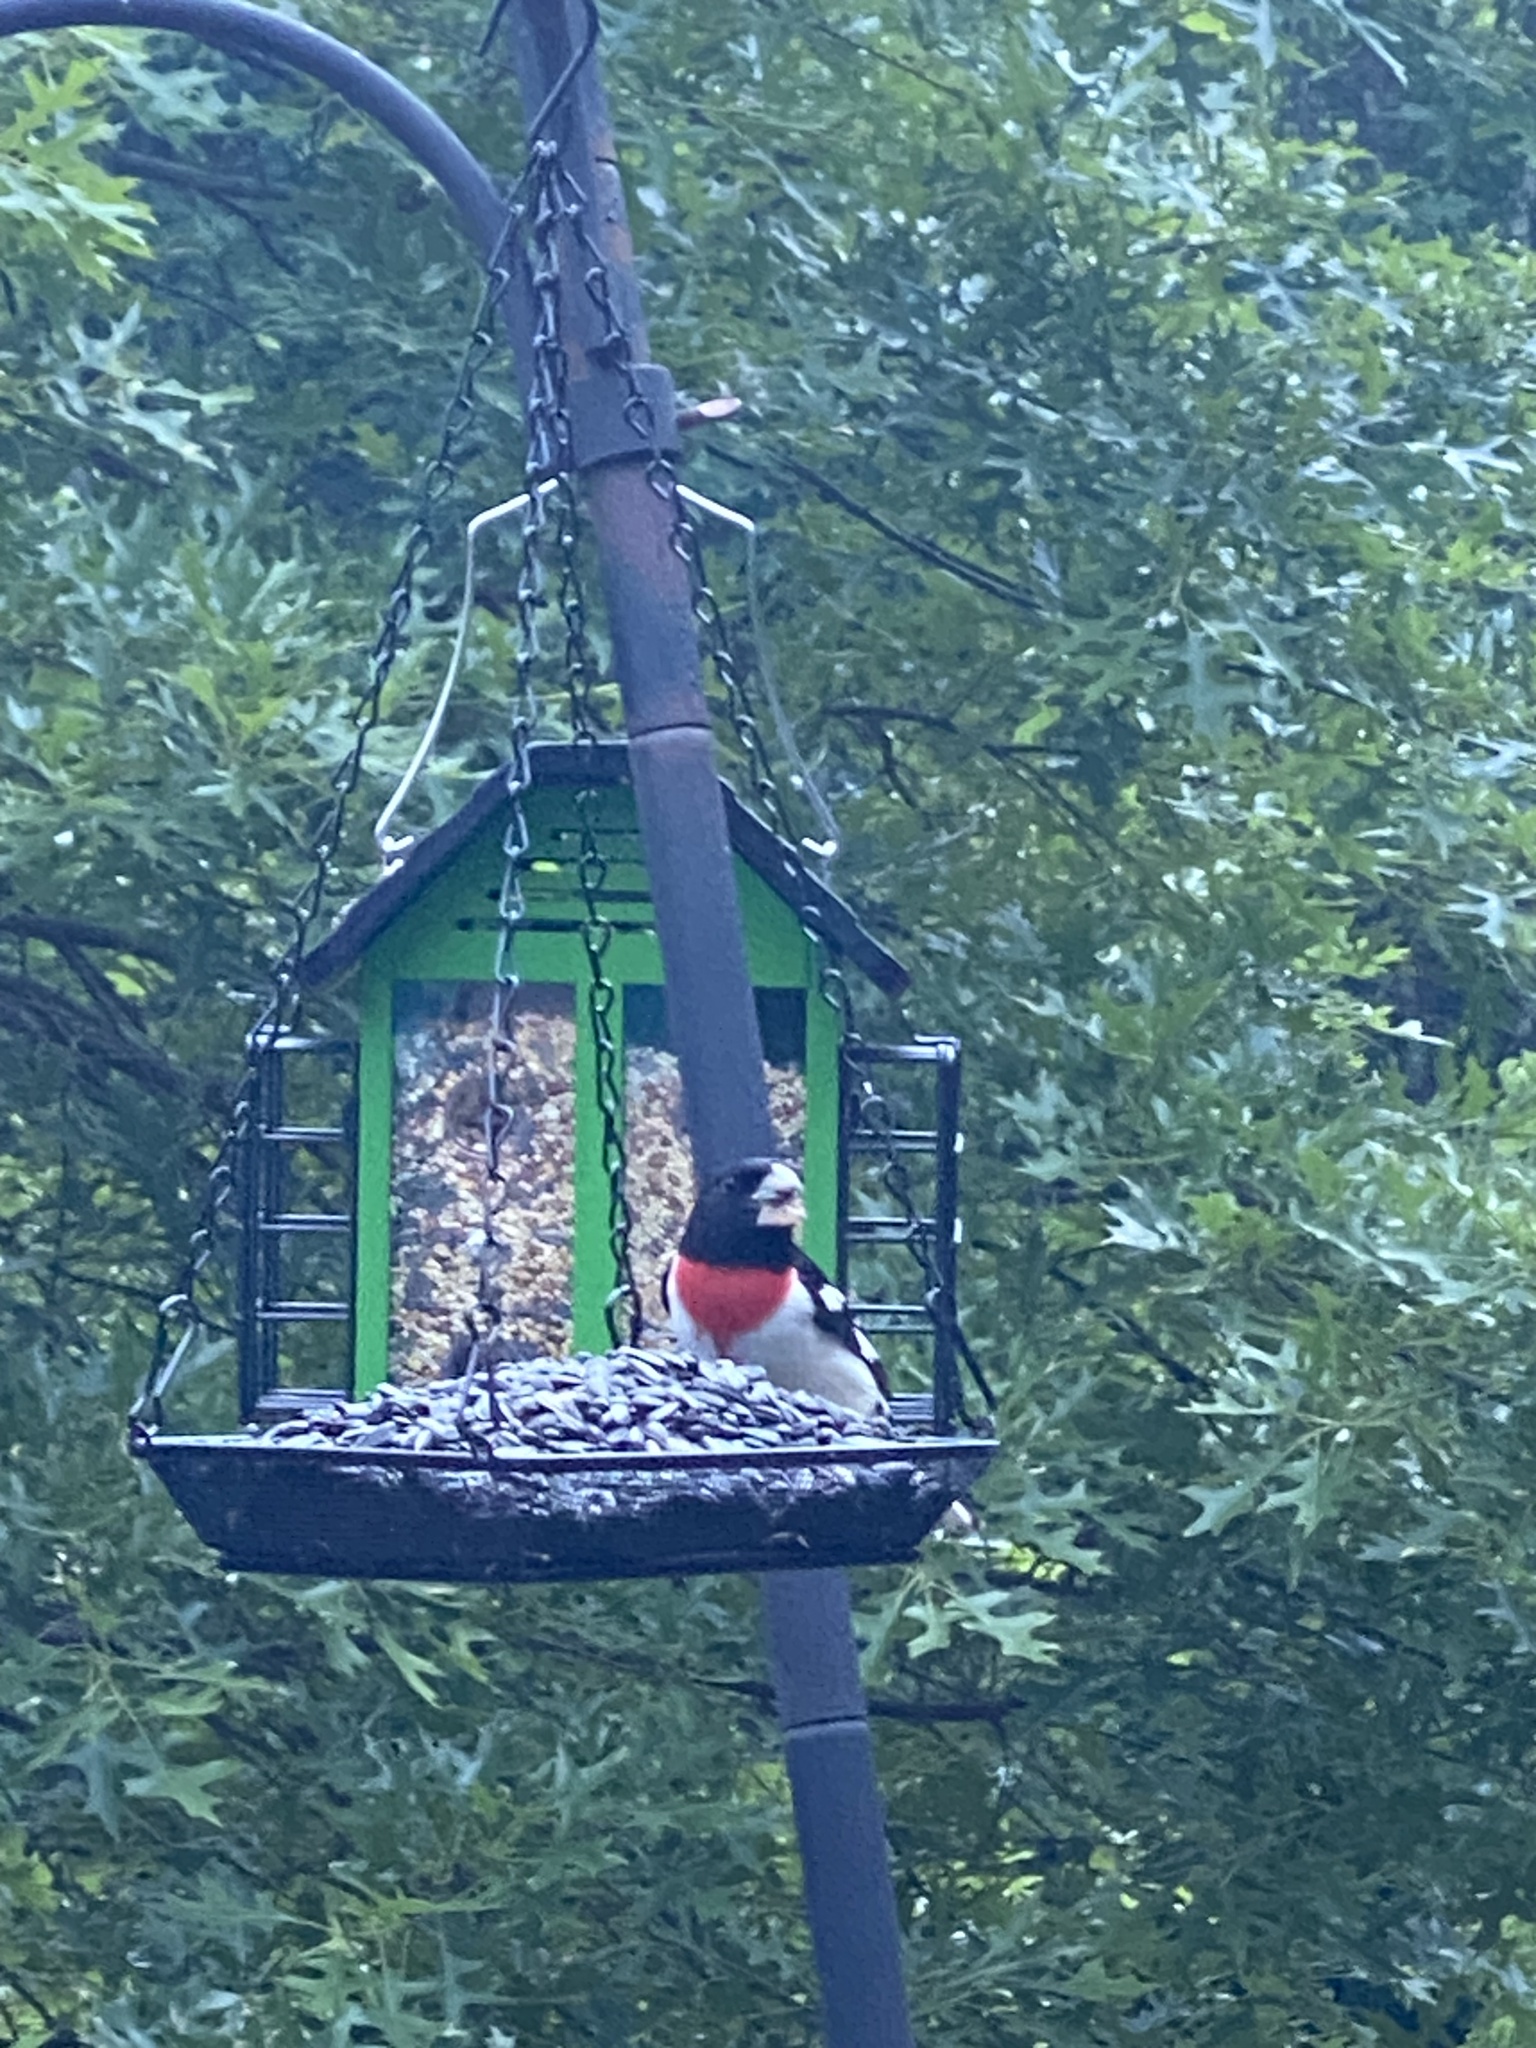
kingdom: Animalia
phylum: Chordata
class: Aves
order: Passeriformes
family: Cardinalidae
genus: Pheucticus
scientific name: Pheucticus ludovicianus
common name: Rose-breasted grosbeak
